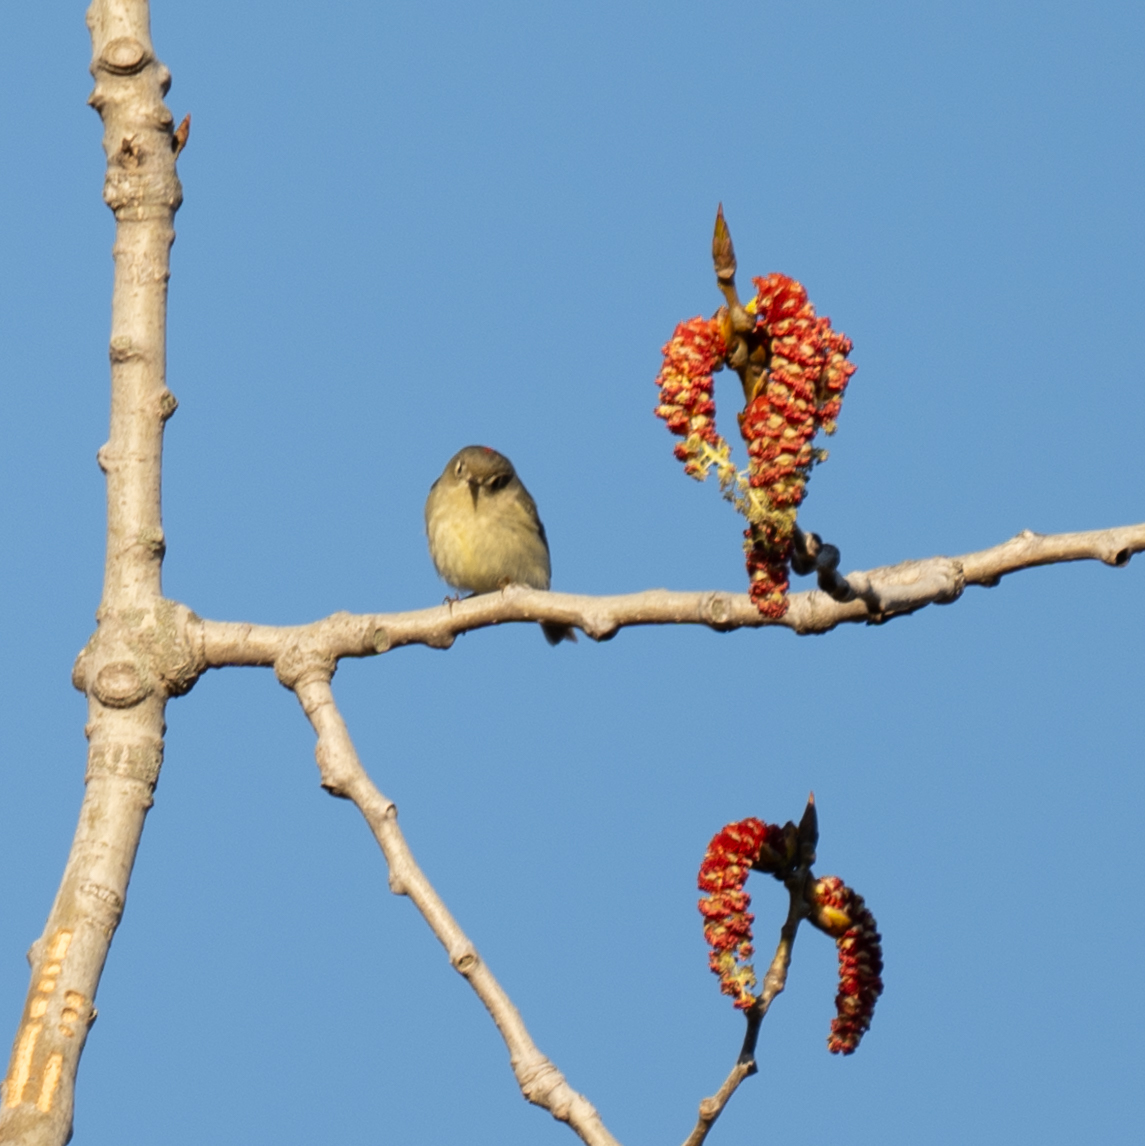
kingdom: Animalia
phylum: Chordata
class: Aves
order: Passeriformes
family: Regulidae
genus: Regulus
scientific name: Regulus calendula
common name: Ruby-crowned kinglet
